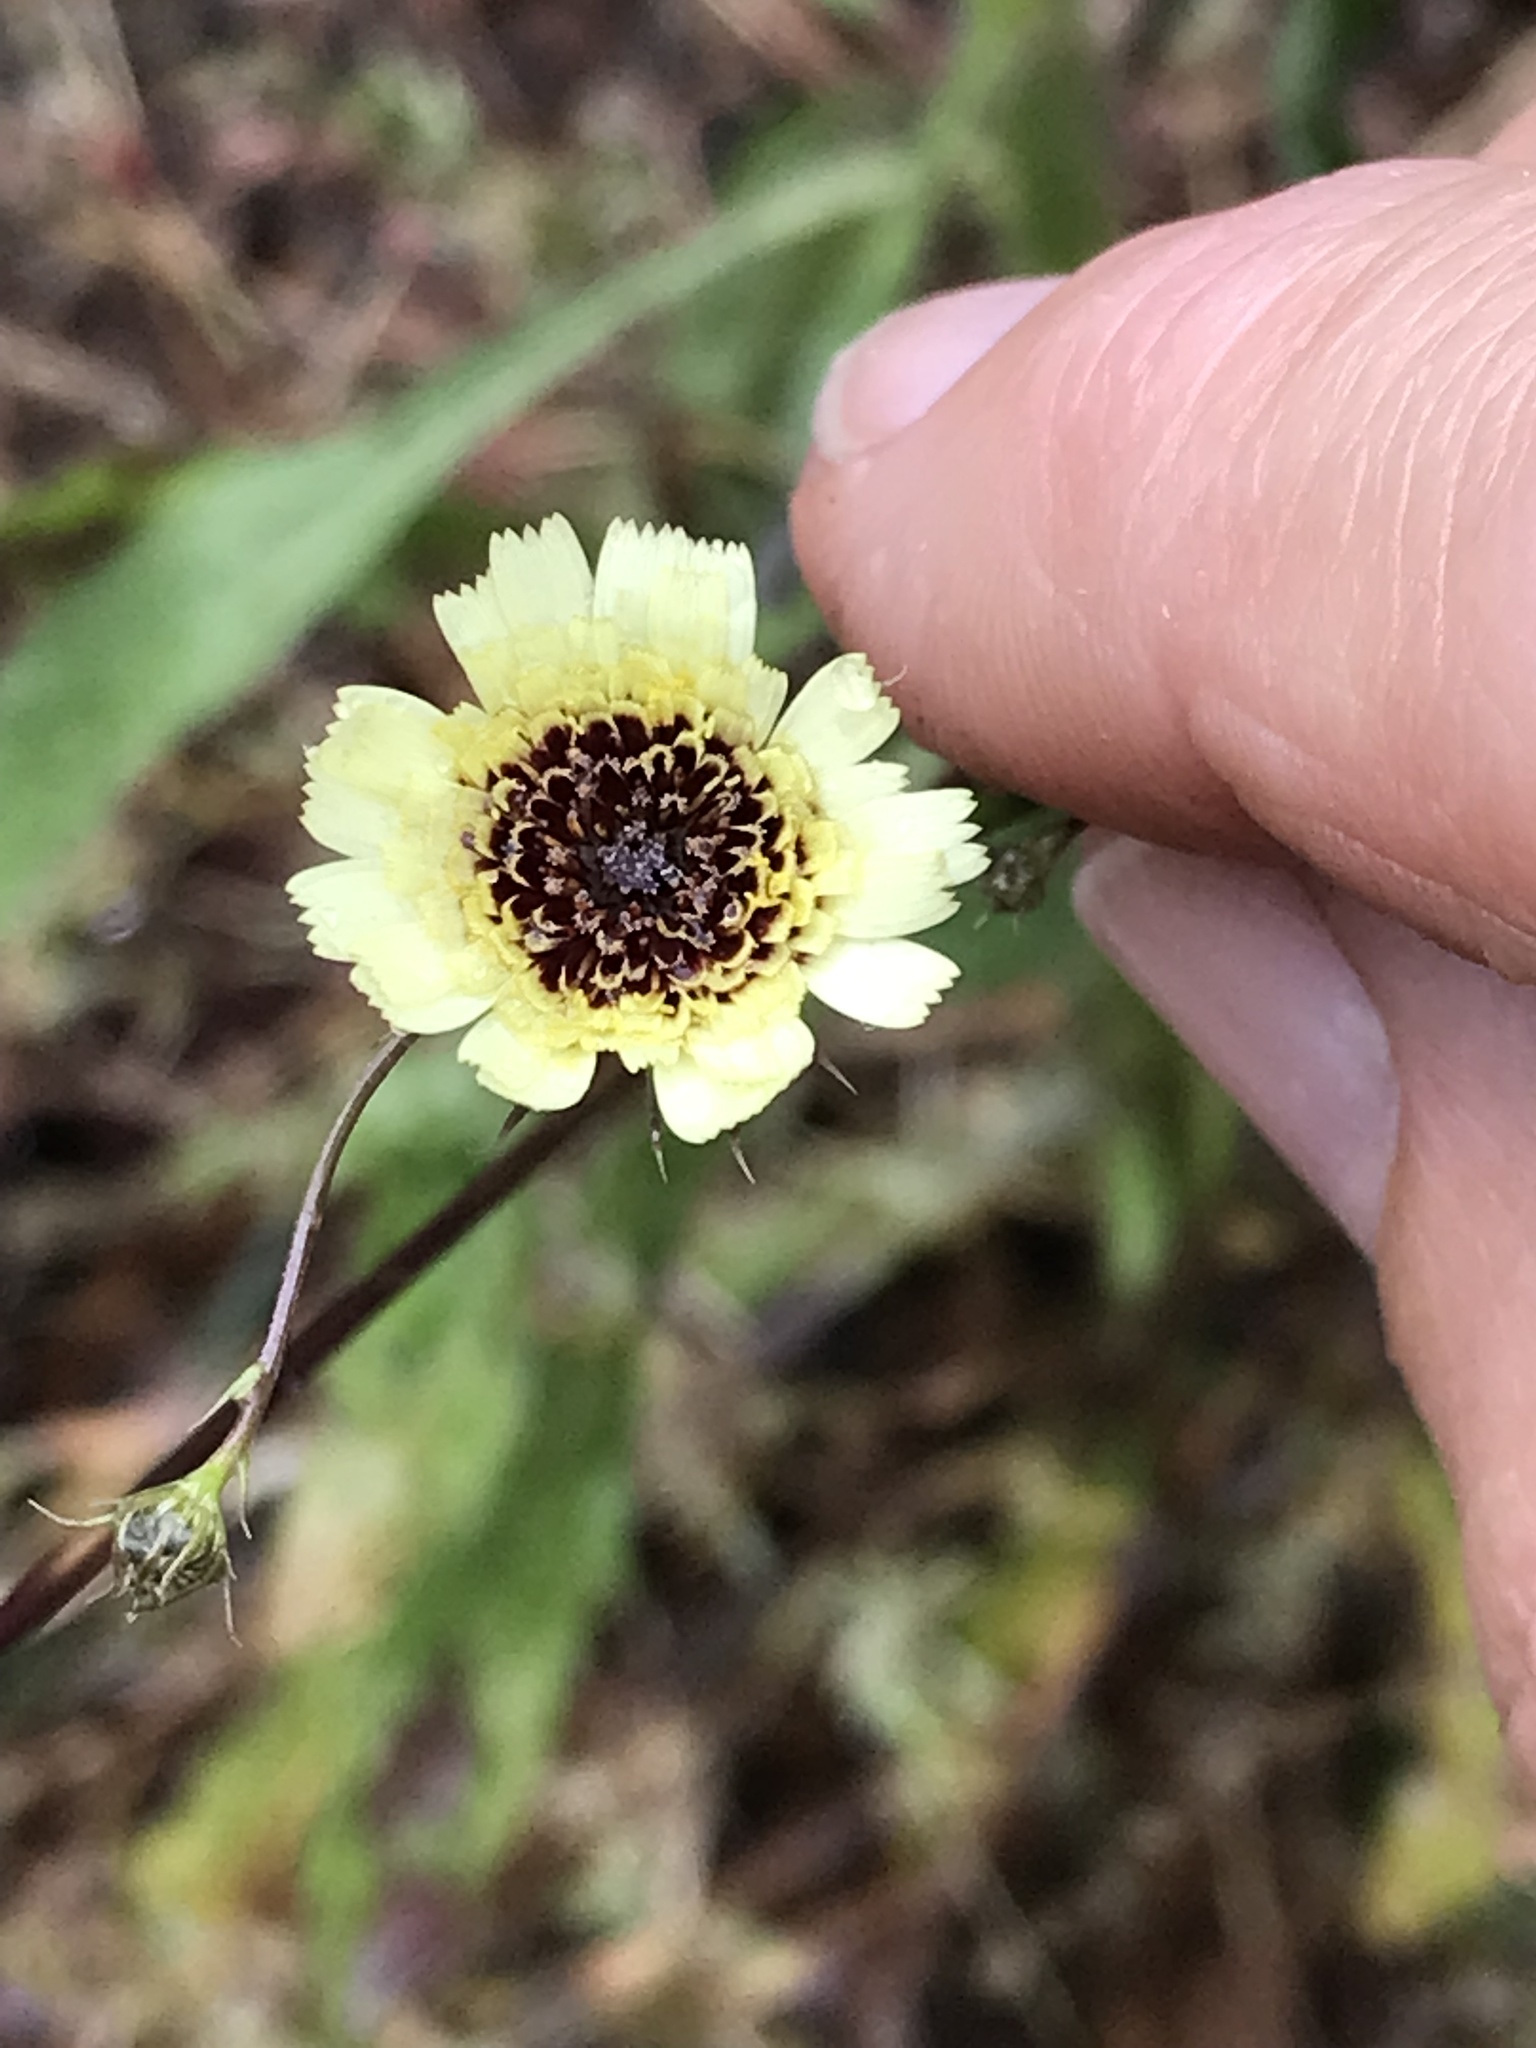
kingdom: Plantae
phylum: Tracheophyta
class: Magnoliopsida
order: Asterales
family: Asteraceae
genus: Tolpis
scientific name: Tolpis barbata
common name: Yellow hawkweed
